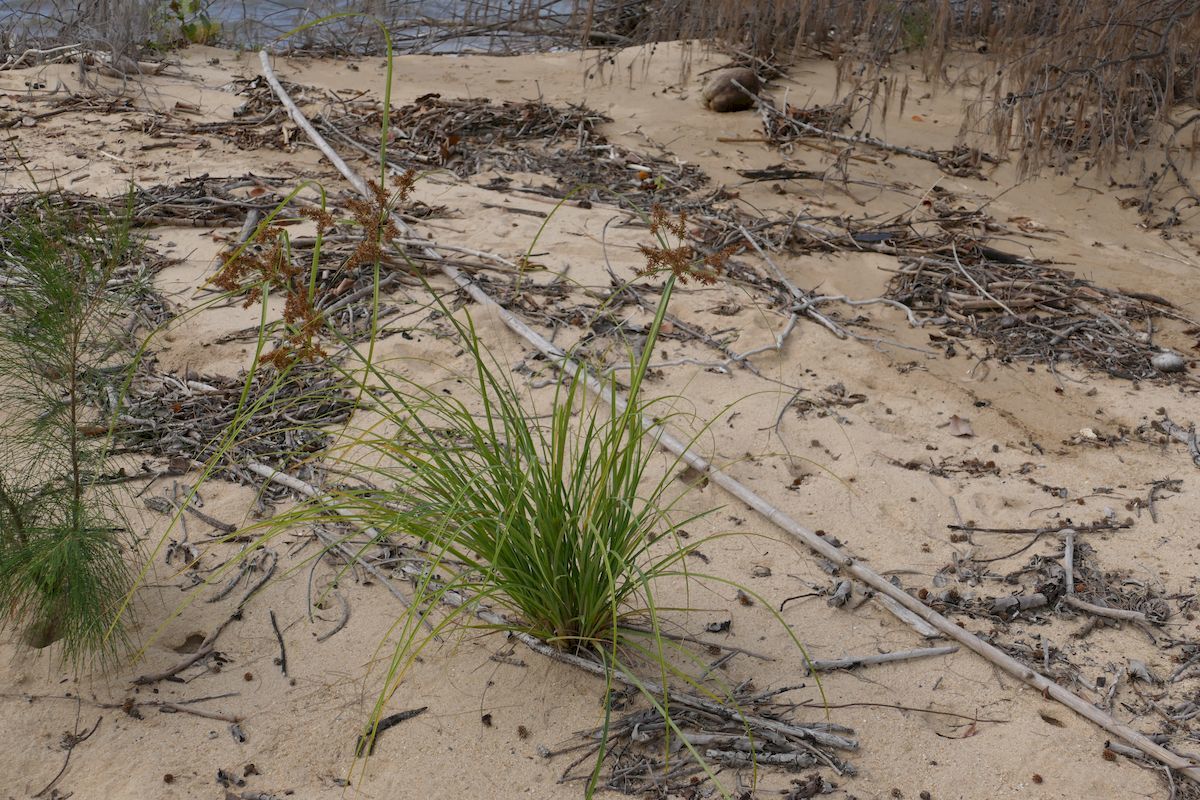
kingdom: Plantae
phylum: Tracheophyta
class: Liliopsida
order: Poales
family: Cyperaceae
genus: Cyperus
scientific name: Cyperus javanicus
